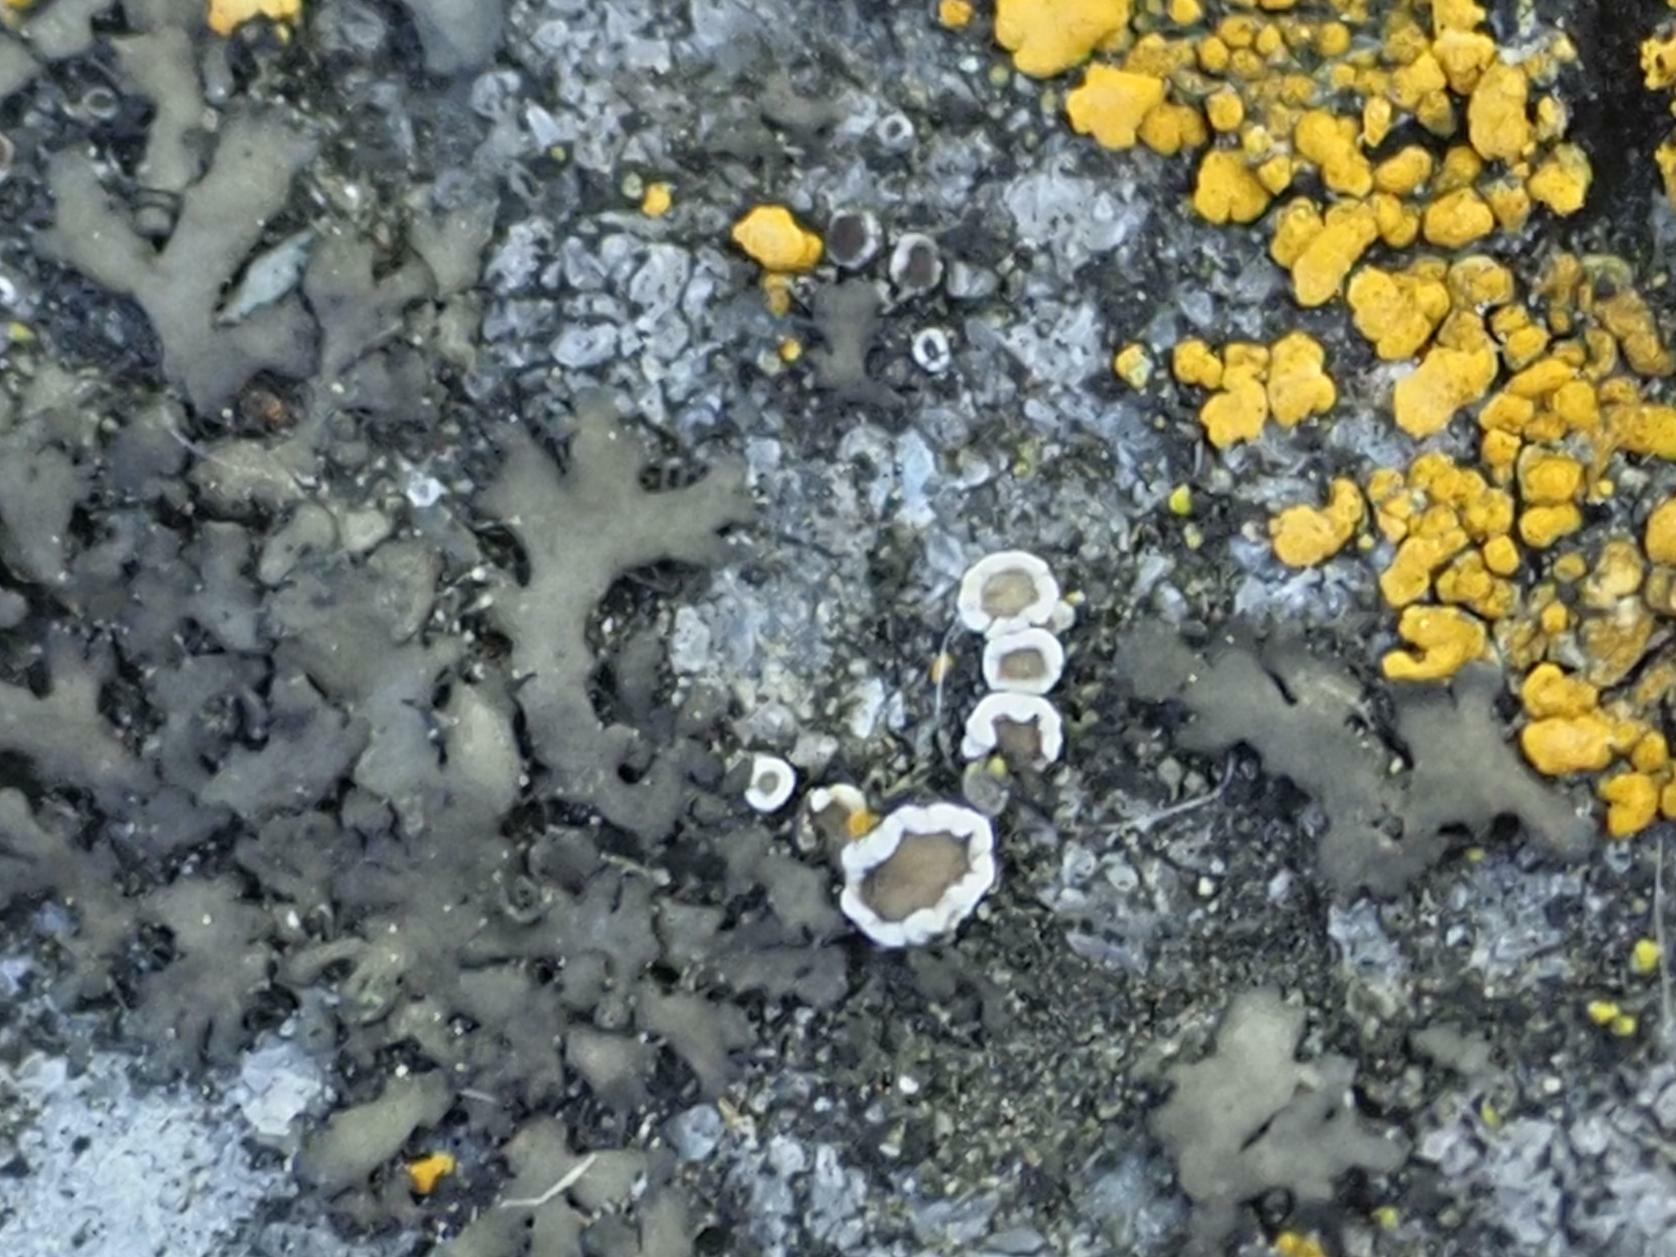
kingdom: Fungi
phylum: Ascomycota
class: Lecanoromycetes
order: Lecanorales
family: Lecanoraceae
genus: Polyozosia
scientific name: Polyozosia dispersa
